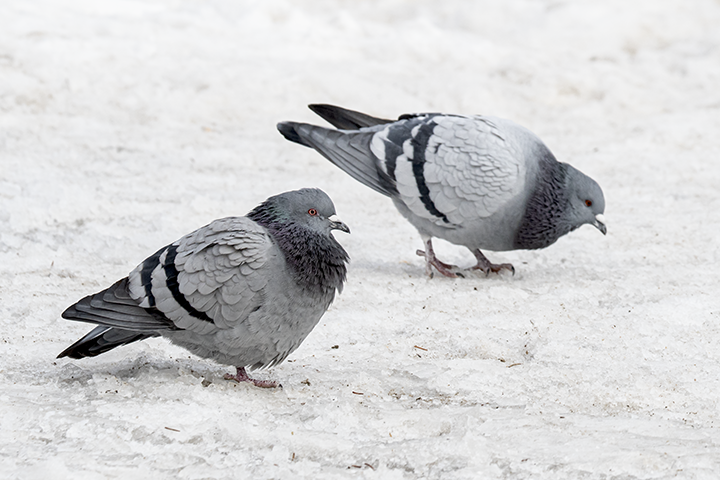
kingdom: Animalia
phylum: Chordata
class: Aves
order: Columbiformes
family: Columbidae
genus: Columba
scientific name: Columba livia
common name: Rock pigeon
